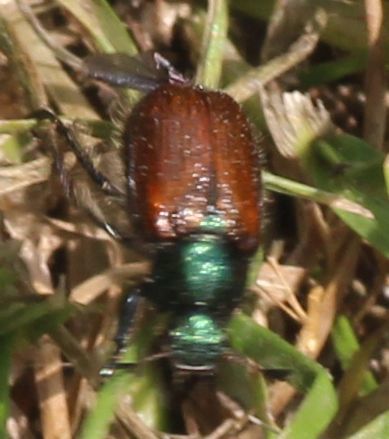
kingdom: Animalia
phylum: Arthropoda
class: Insecta
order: Coleoptera
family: Scarabaeidae
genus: Phyllopertha
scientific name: Phyllopertha horticola
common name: Garden chafer
